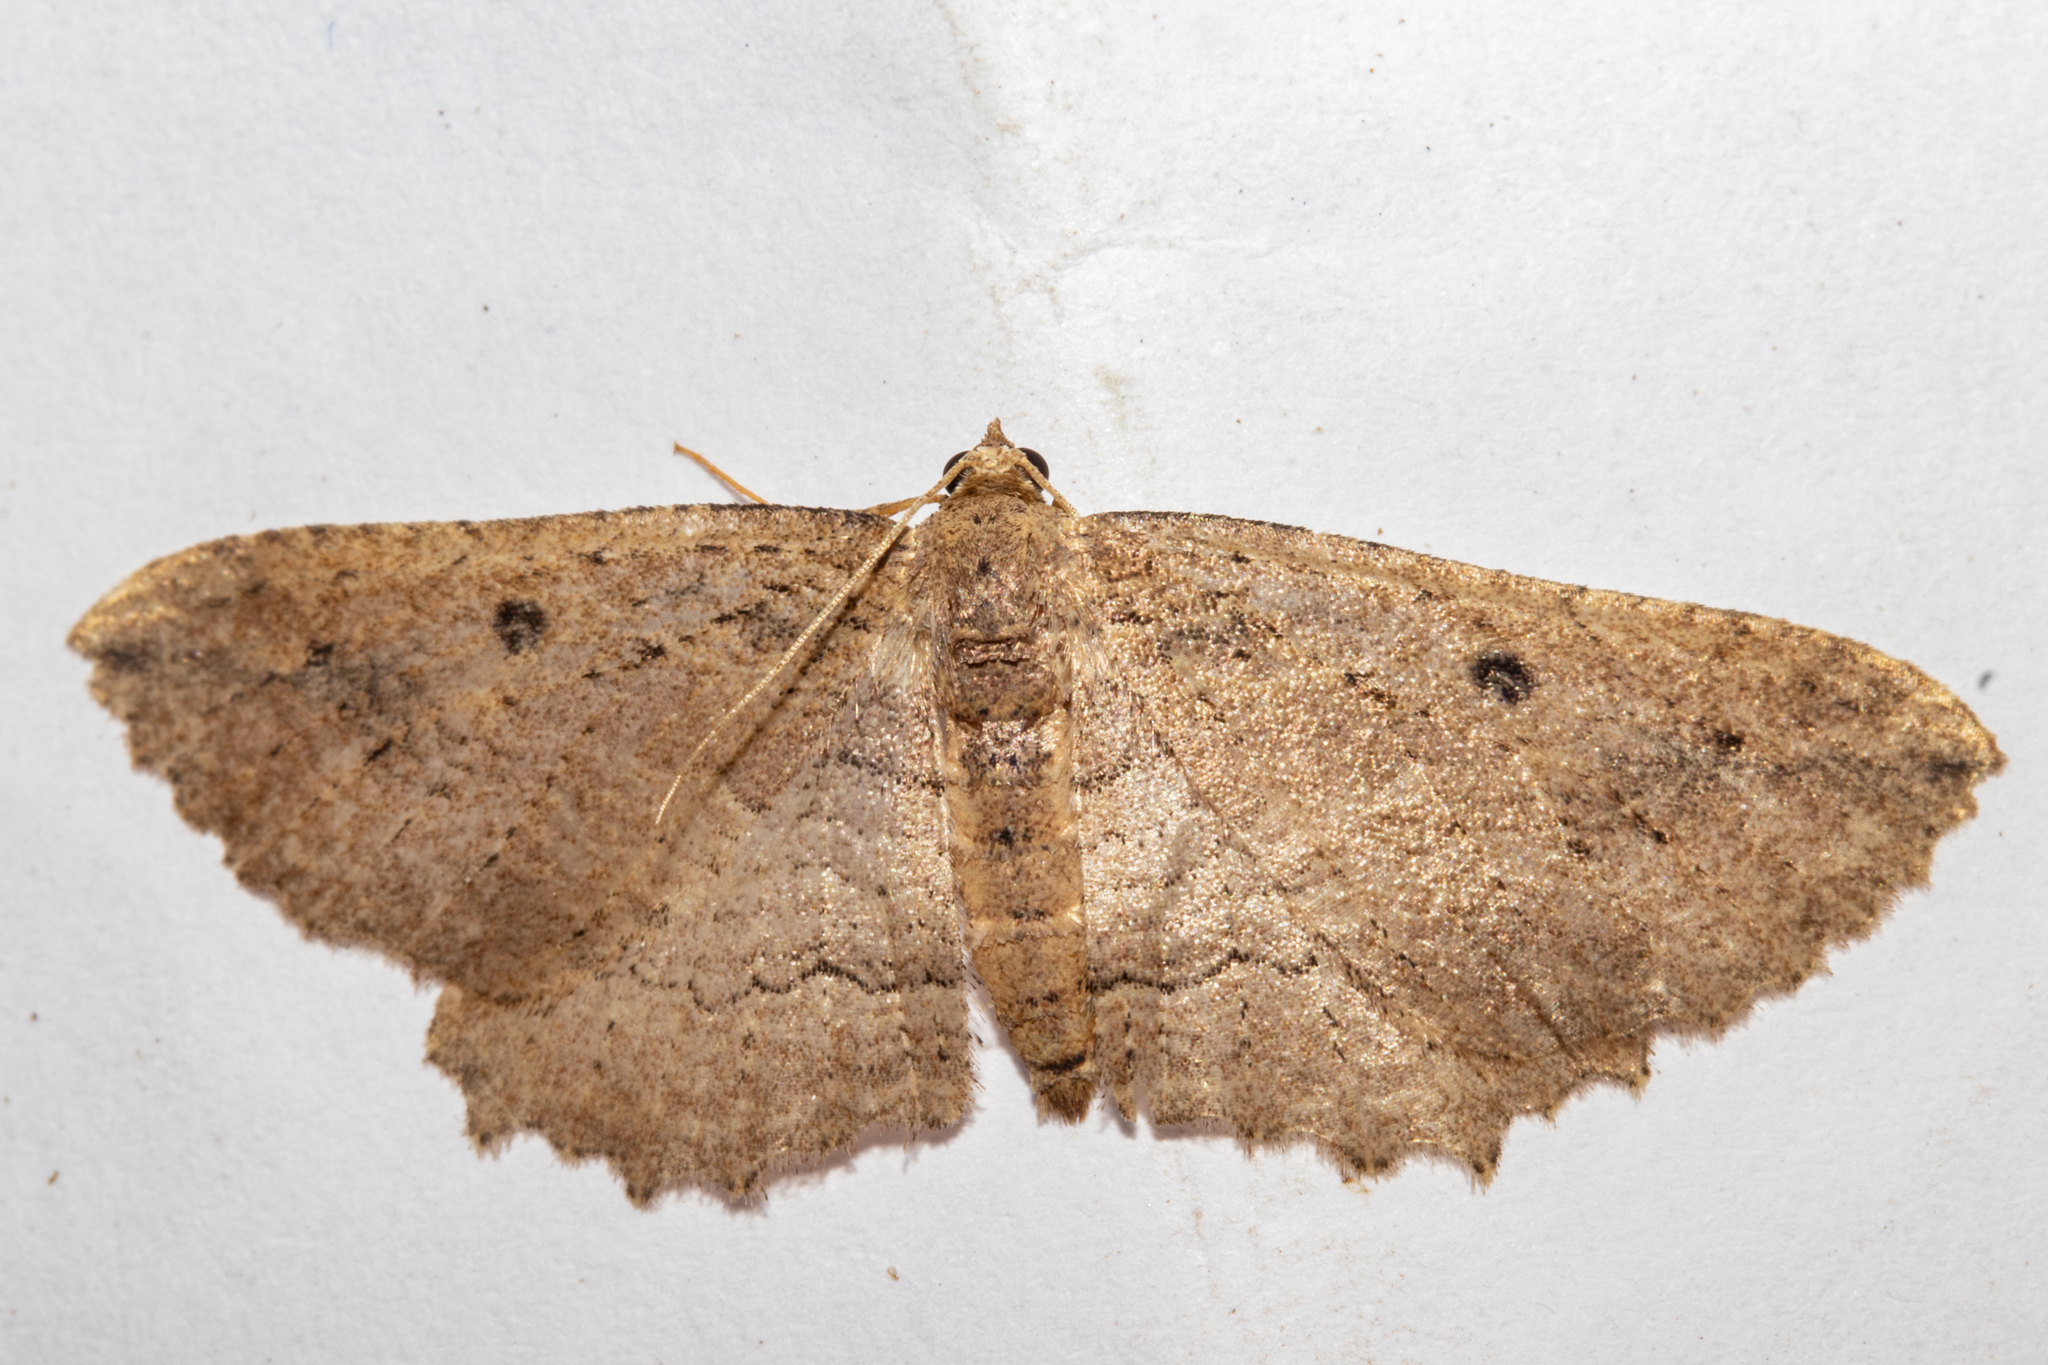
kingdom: Animalia
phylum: Arthropoda
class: Insecta
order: Lepidoptera
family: Geometridae
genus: Austrocidaria
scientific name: Austrocidaria anguligera
